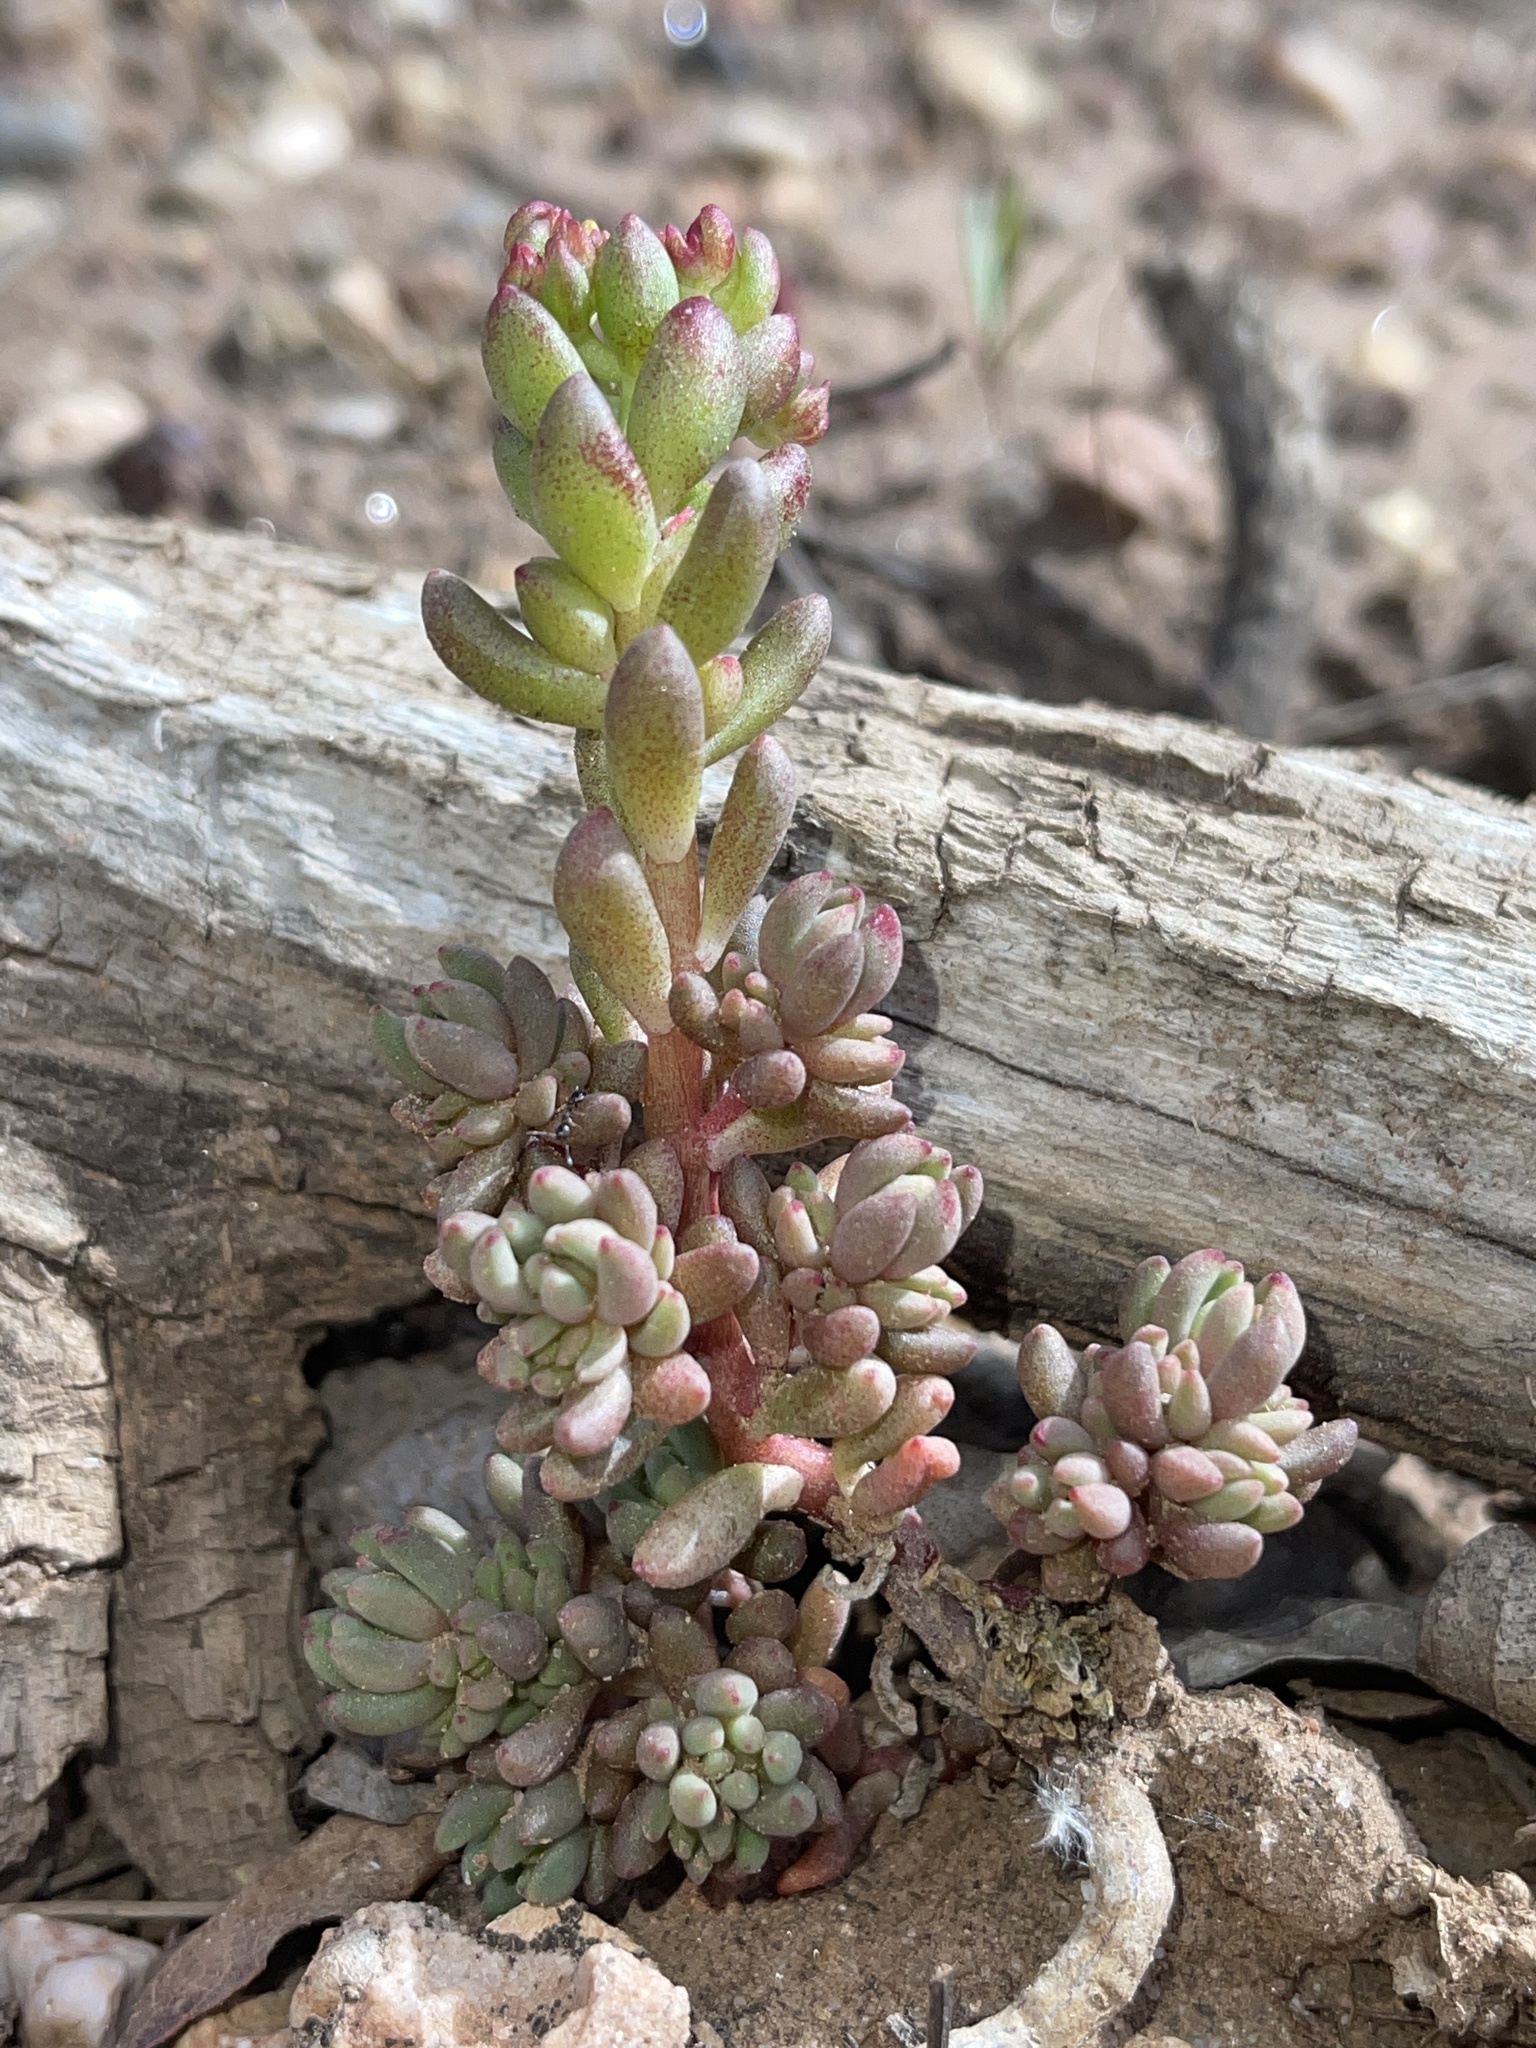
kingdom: Plantae
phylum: Tracheophyta
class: Magnoliopsida
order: Saxifragales
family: Crassulaceae
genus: Sedum
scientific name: Sedum lanceolatum
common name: Common stonecrop
